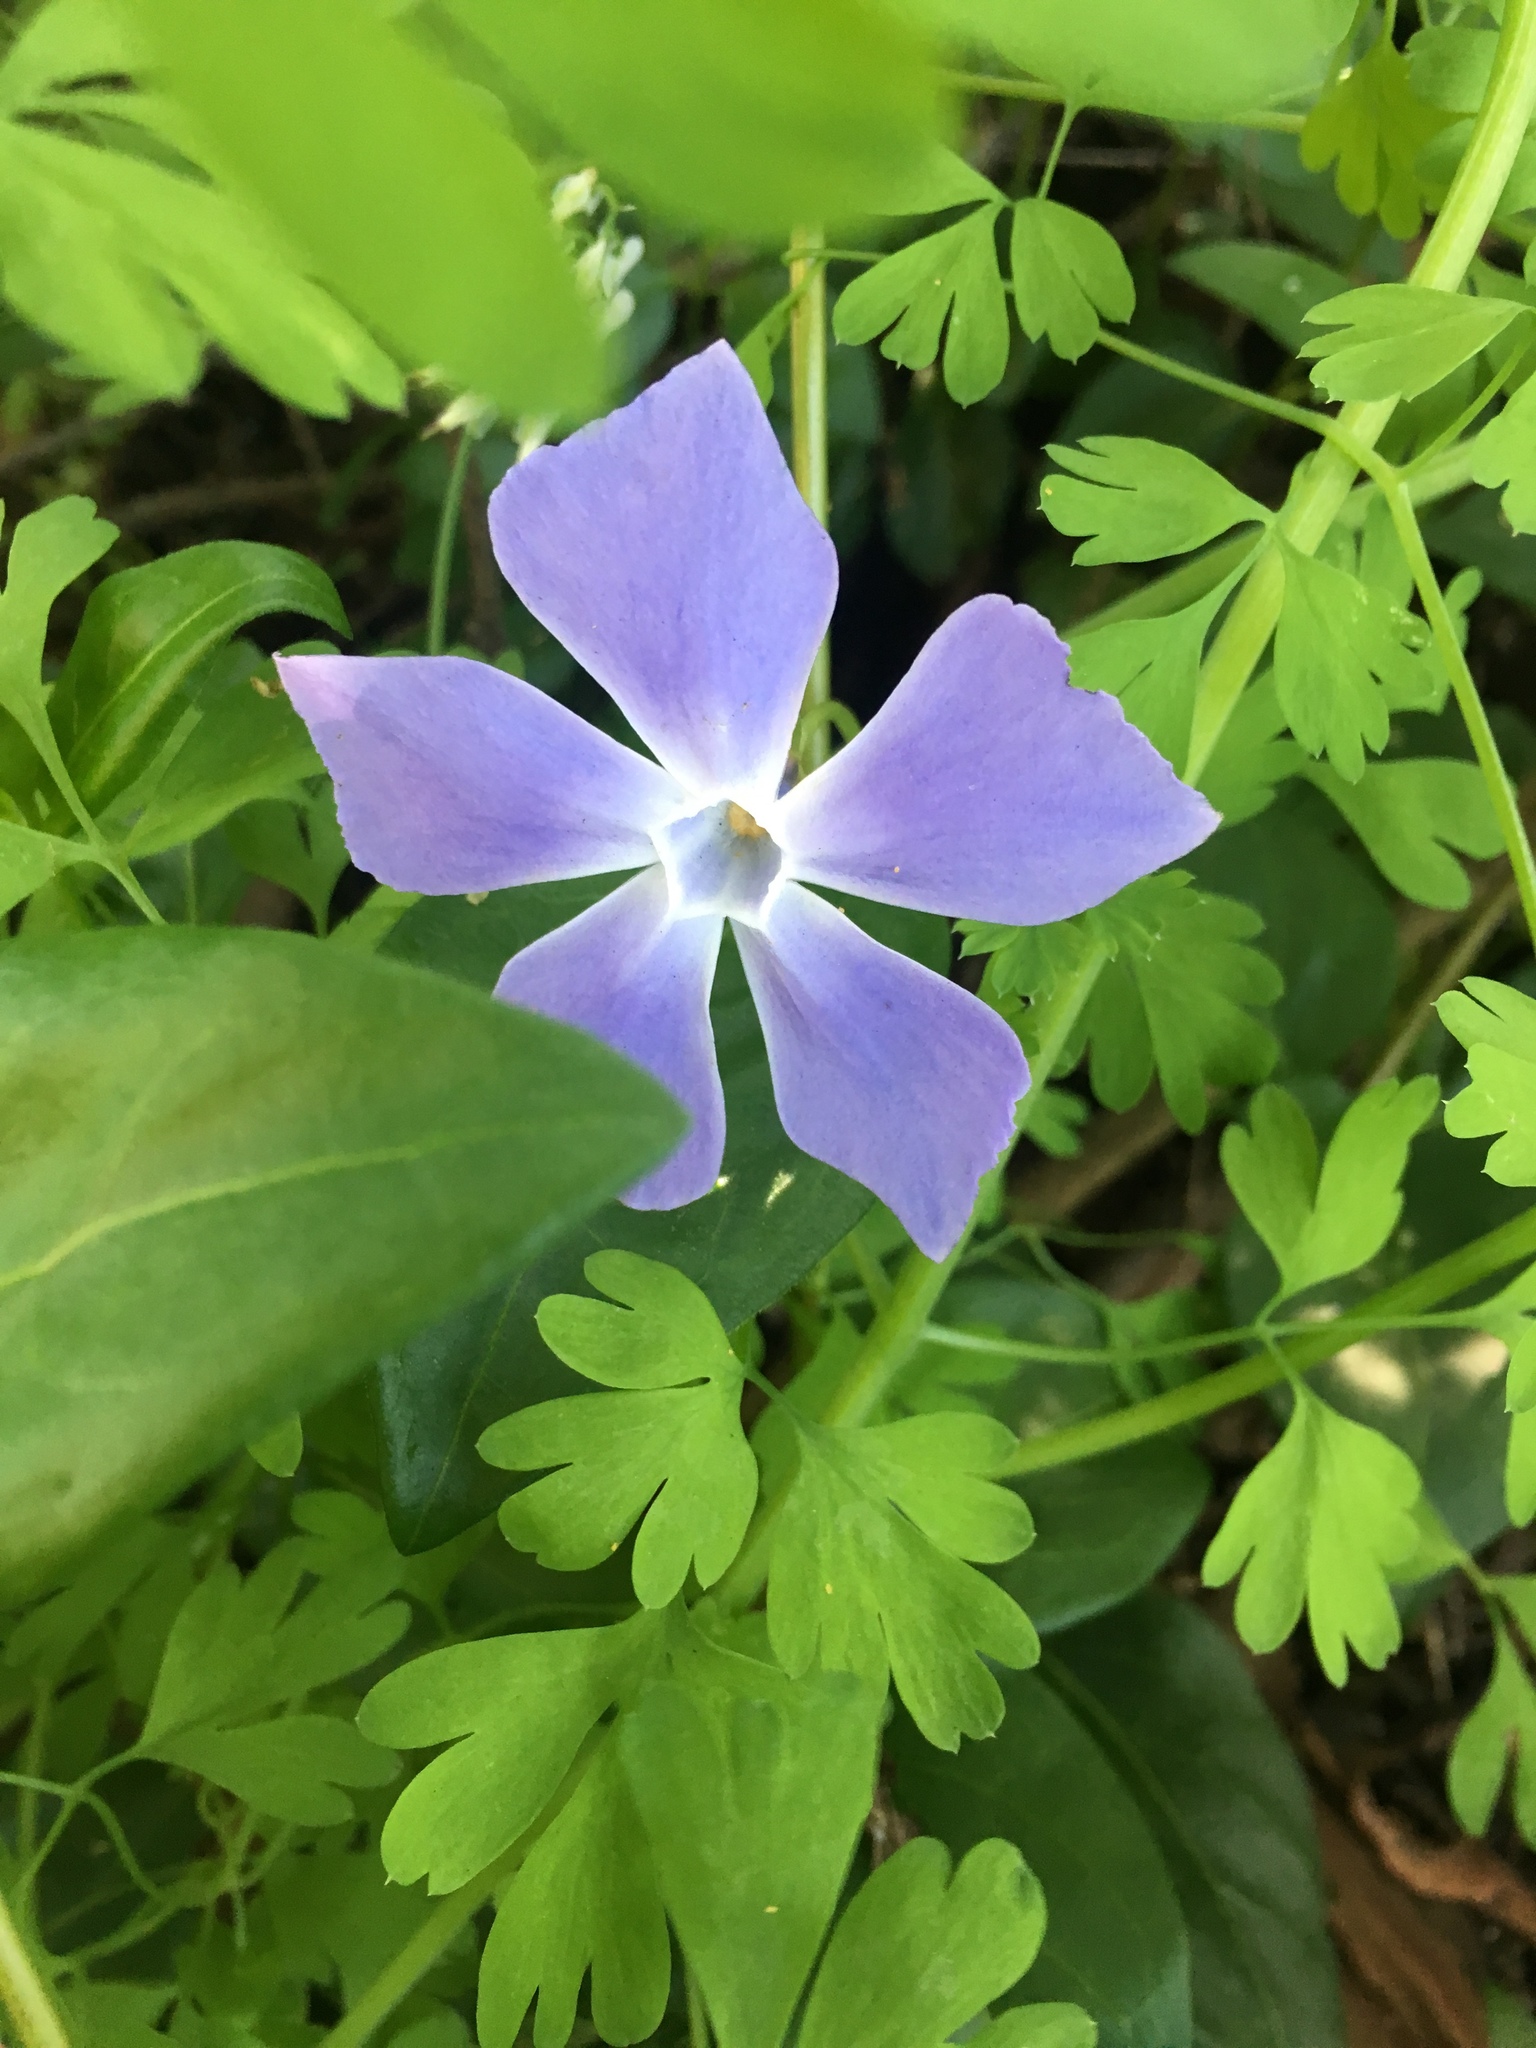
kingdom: Plantae
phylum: Tracheophyta
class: Magnoliopsida
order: Gentianales
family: Apocynaceae
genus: Vinca
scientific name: Vinca major
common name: Greater periwinkle
